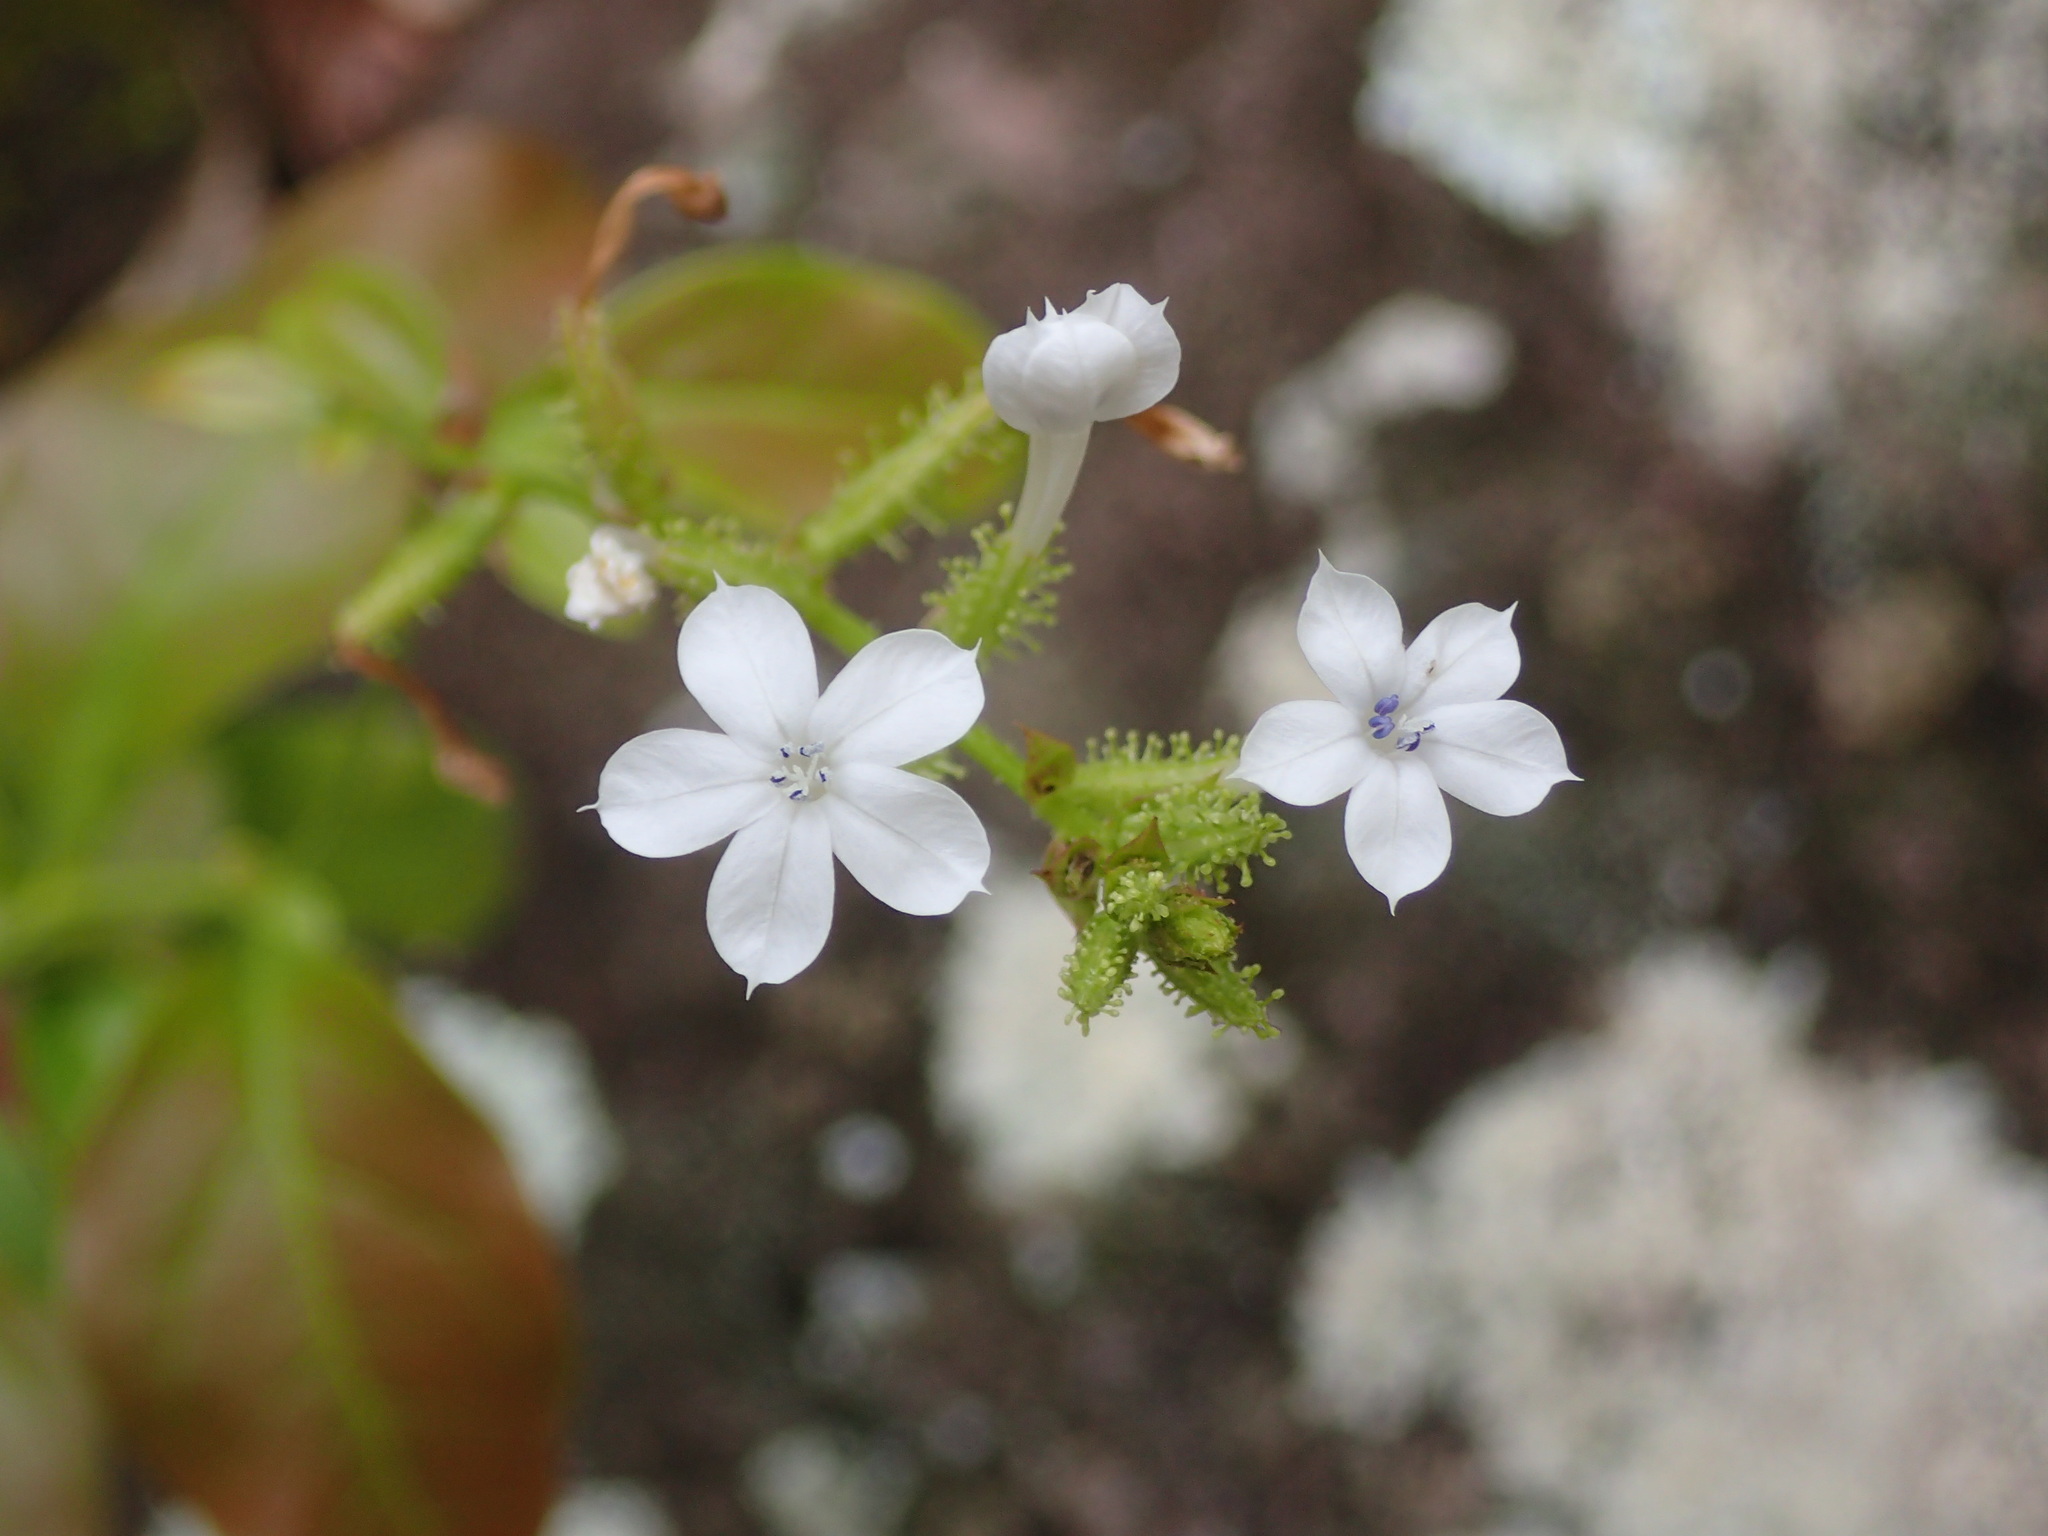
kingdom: Plantae
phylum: Tracheophyta
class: Magnoliopsida
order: Caryophyllales
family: Plumbaginaceae
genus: Plumbago
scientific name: Plumbago zeylanica
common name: Doctorbush
